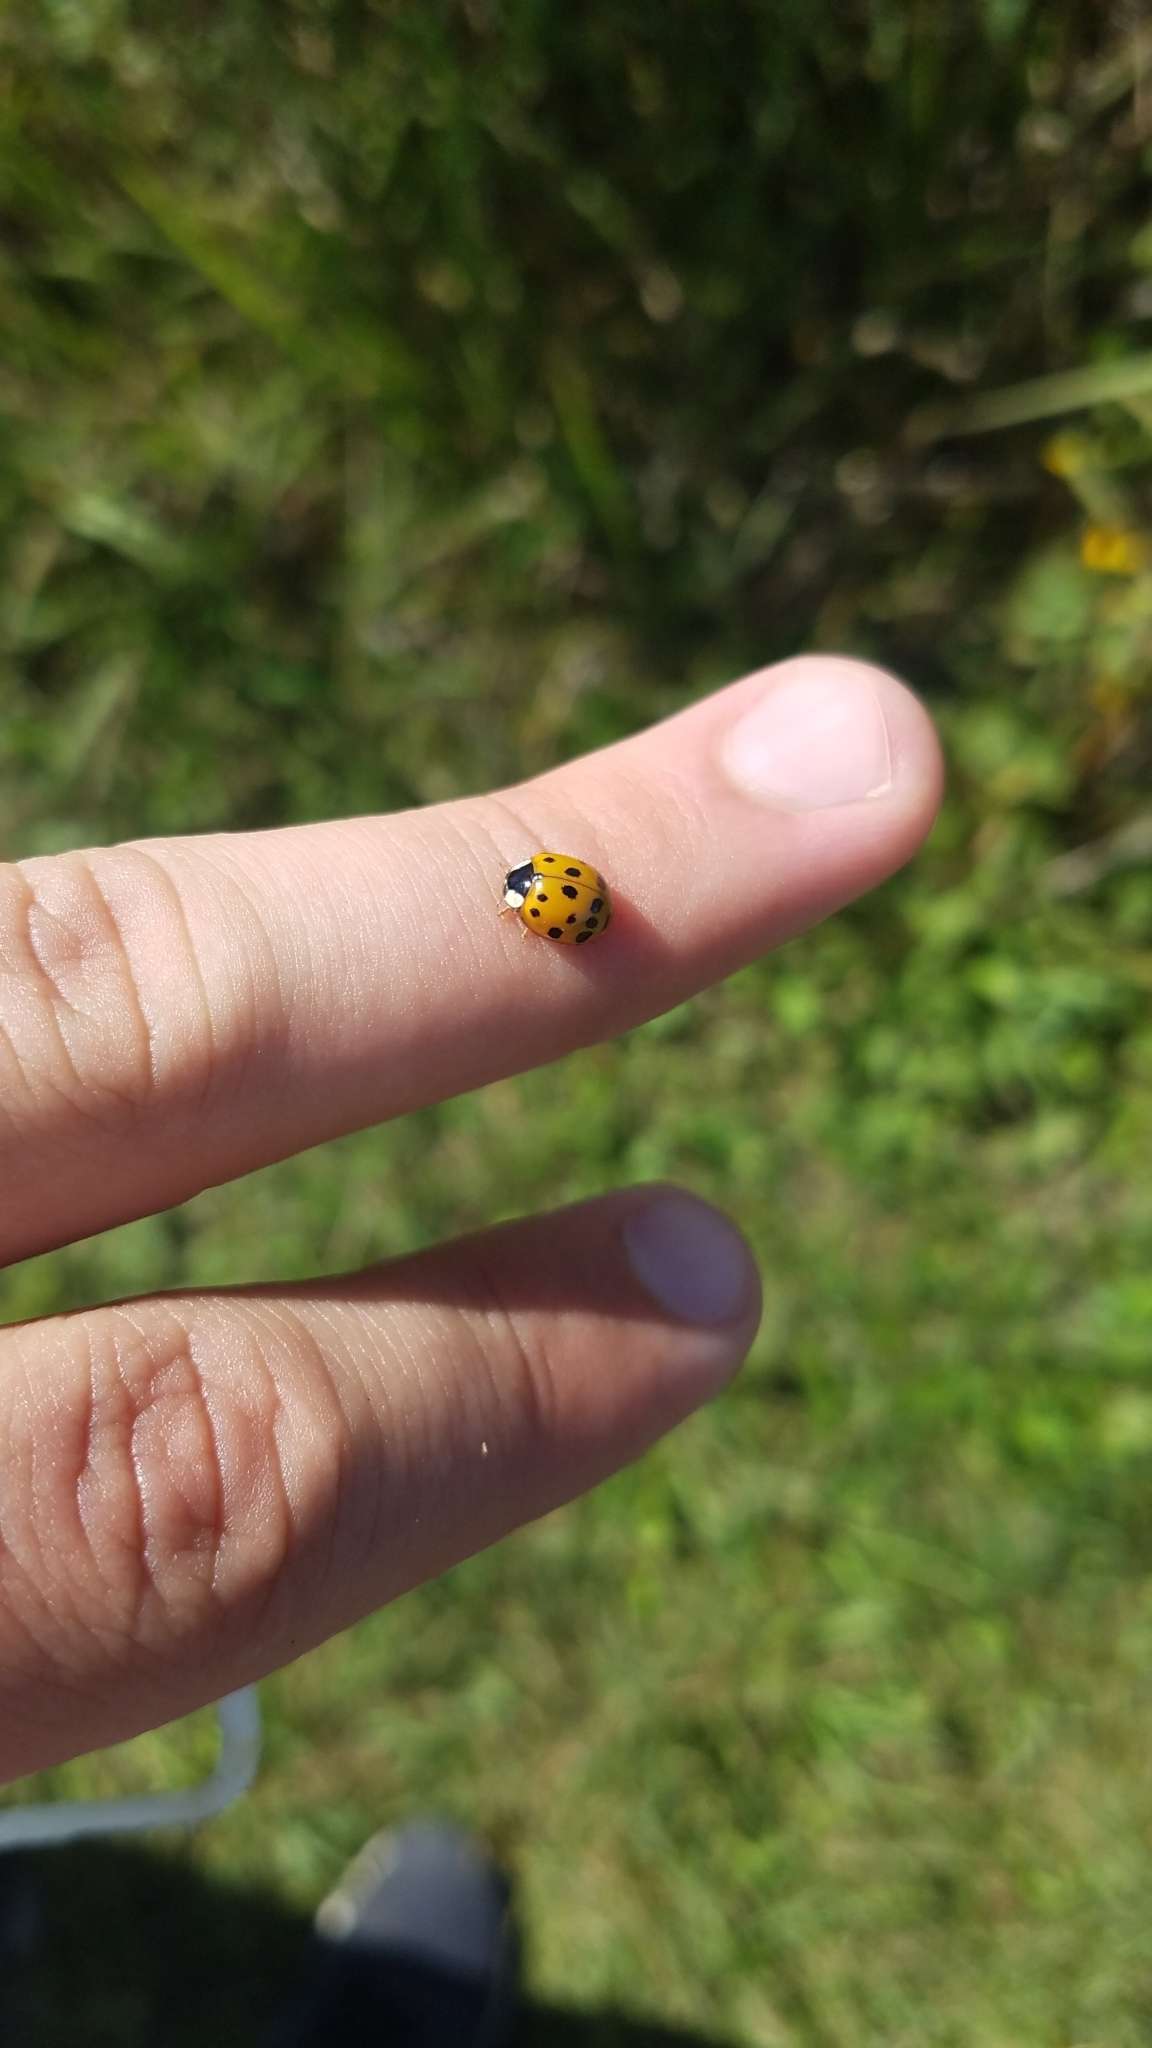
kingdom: Animalia
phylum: Arthropoda
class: Insecta
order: Coleoptera
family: Coccinellidae
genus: Harmonia
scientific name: Harmonia axyridis
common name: Harlequin ladybird
